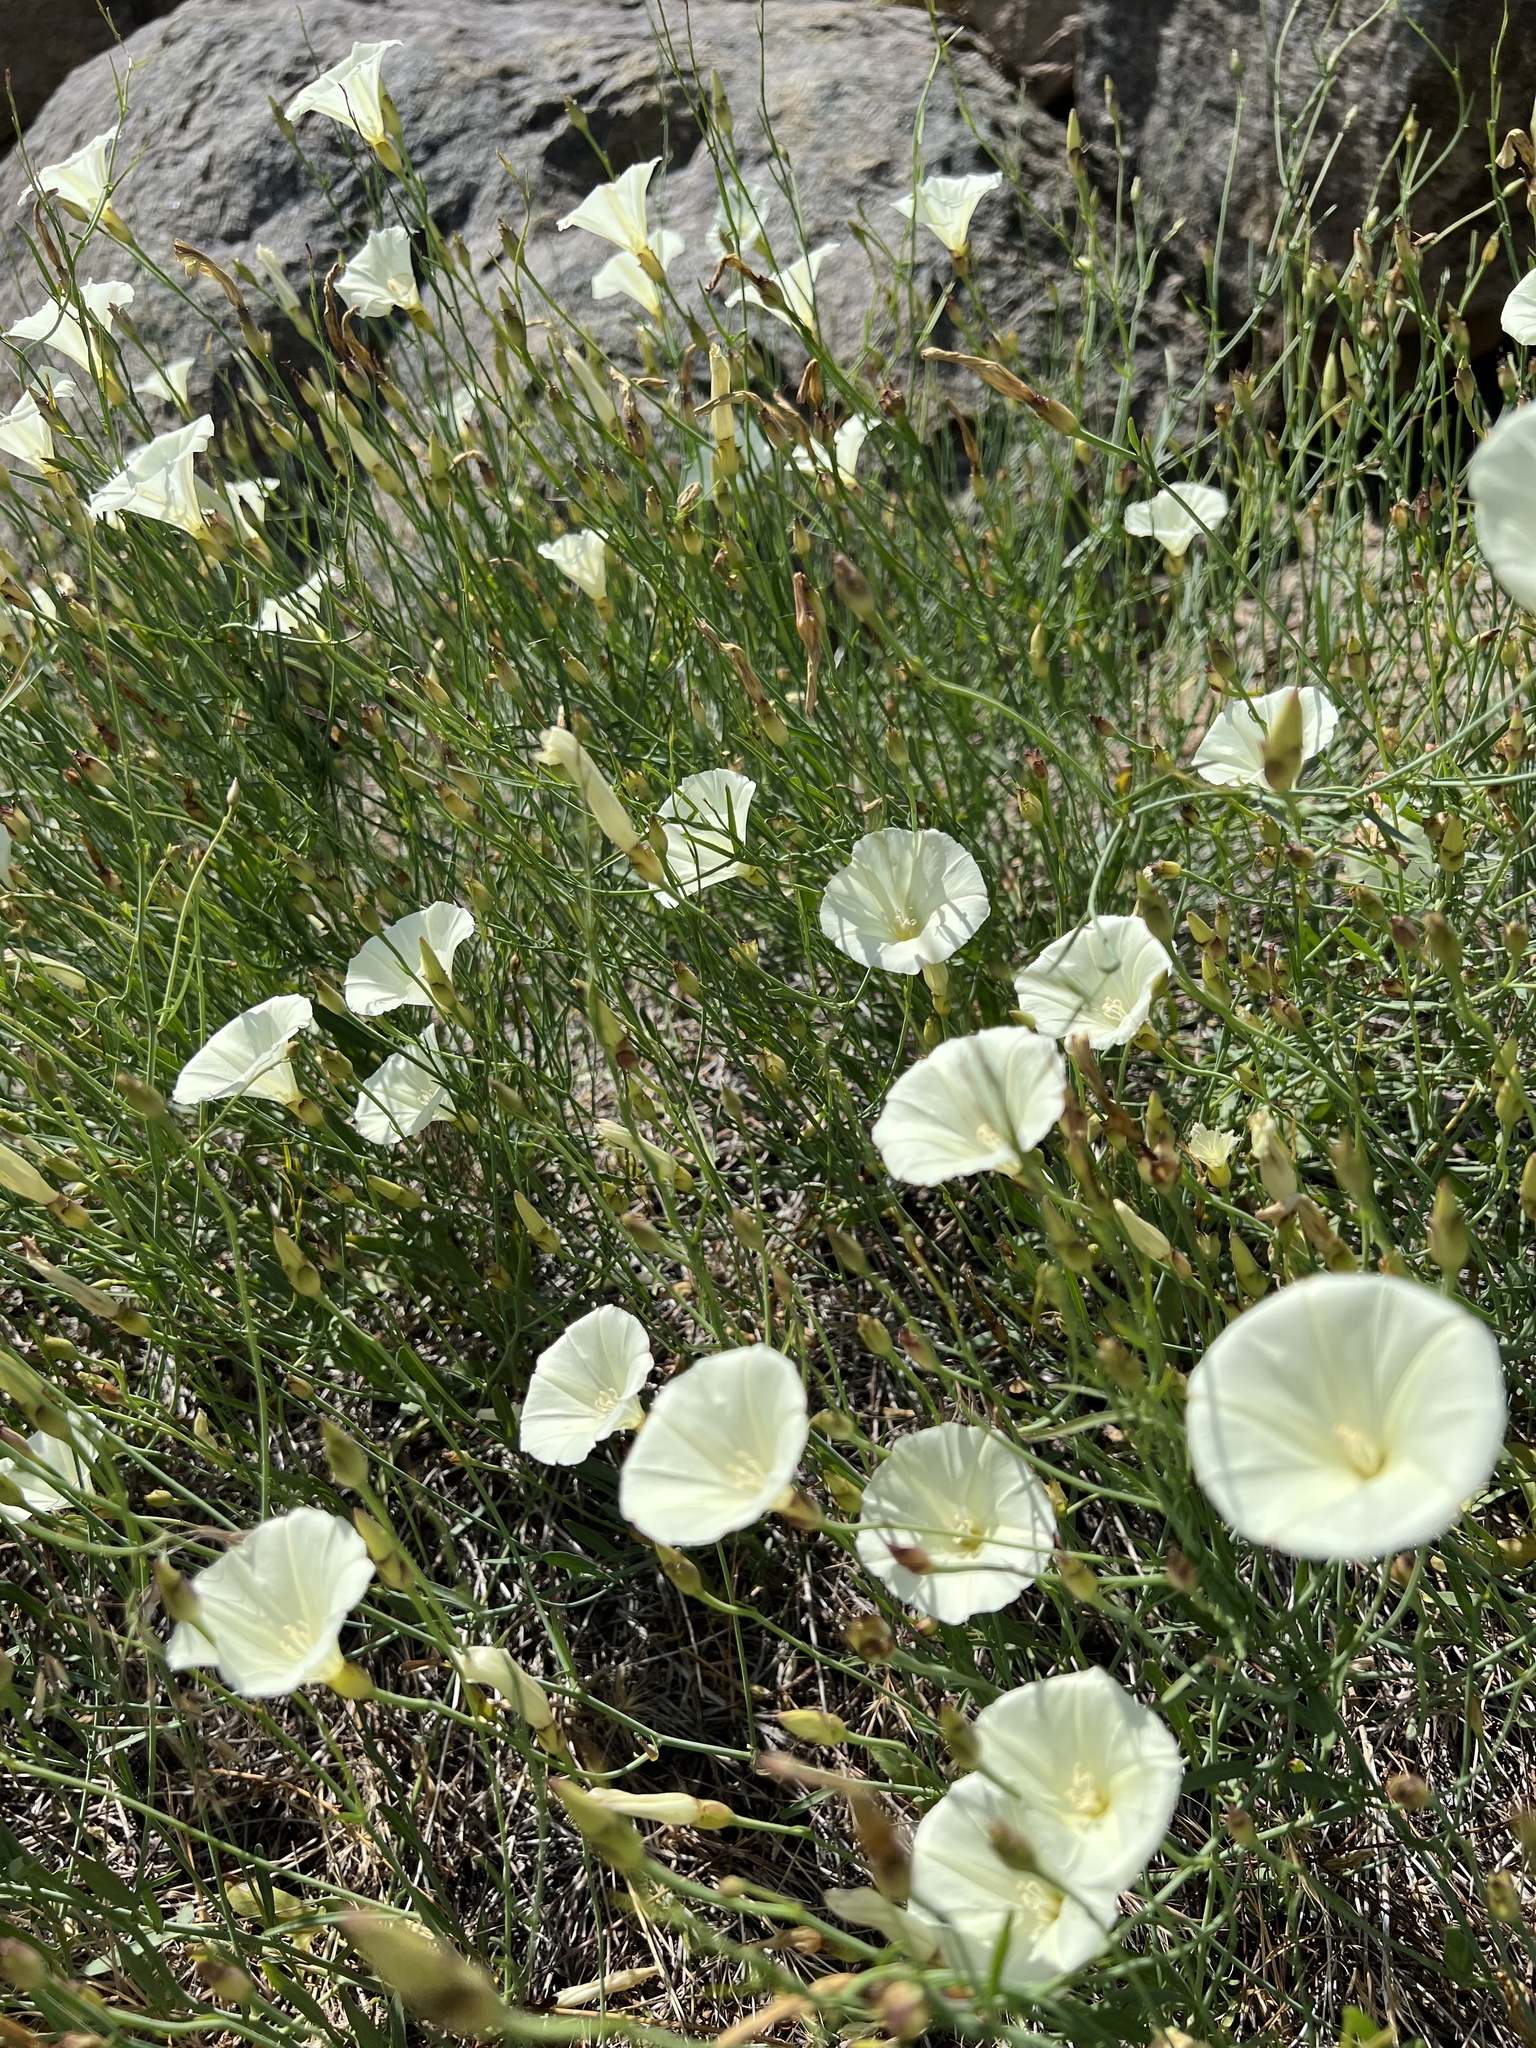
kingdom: Plantae
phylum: Tracheophyta
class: Magnoliopsida
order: Solanales
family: Convolvulaceae
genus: Calystegia
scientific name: Calystegia longipes
